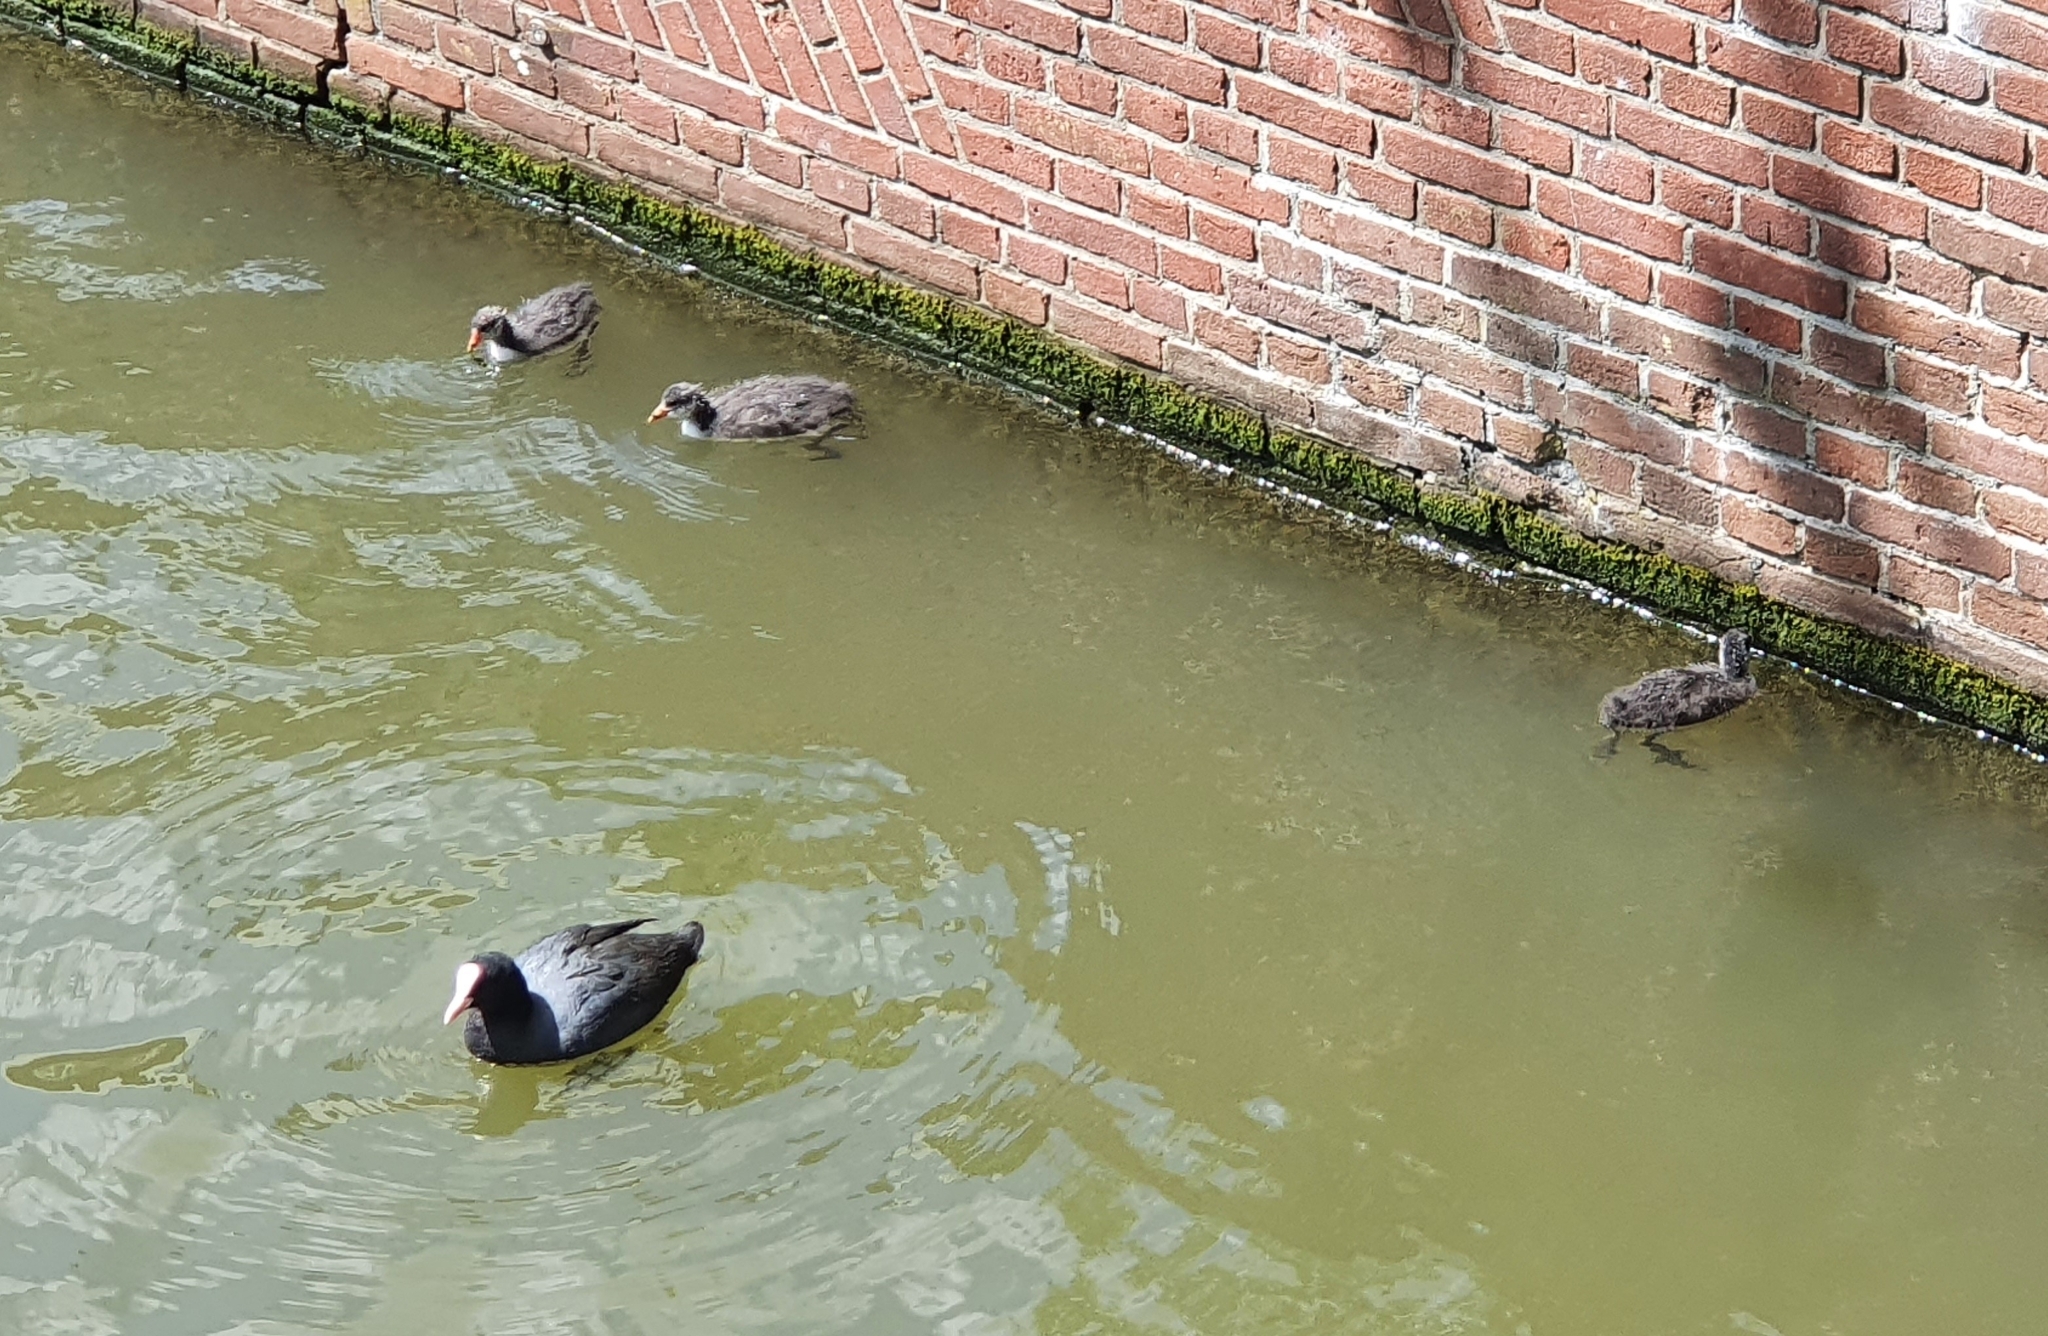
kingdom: Animalia
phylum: Chordata
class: Aves
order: Gruiformes
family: Rallidae
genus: Fulica
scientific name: Fulica atra
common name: Eurasian coot
